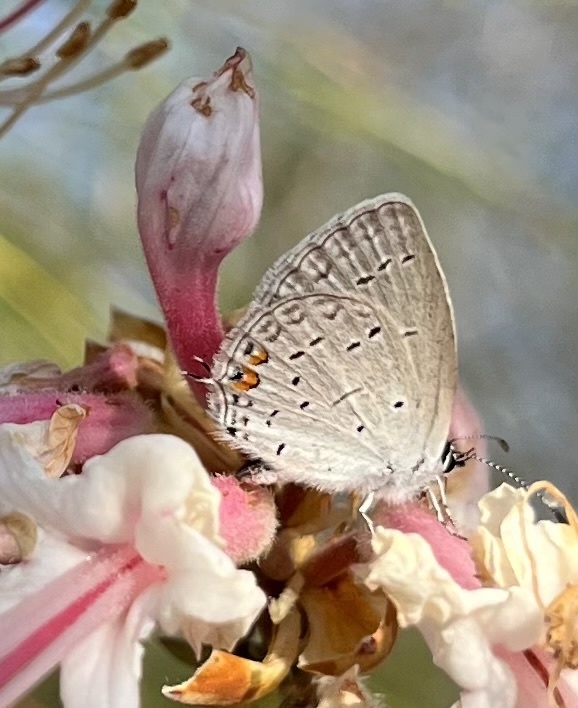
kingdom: Animalia
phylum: Arthropoda
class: Insecta
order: Lepidoptera
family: Lycaenidae
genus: Elkalyce
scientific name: Elkalyce comyntas
